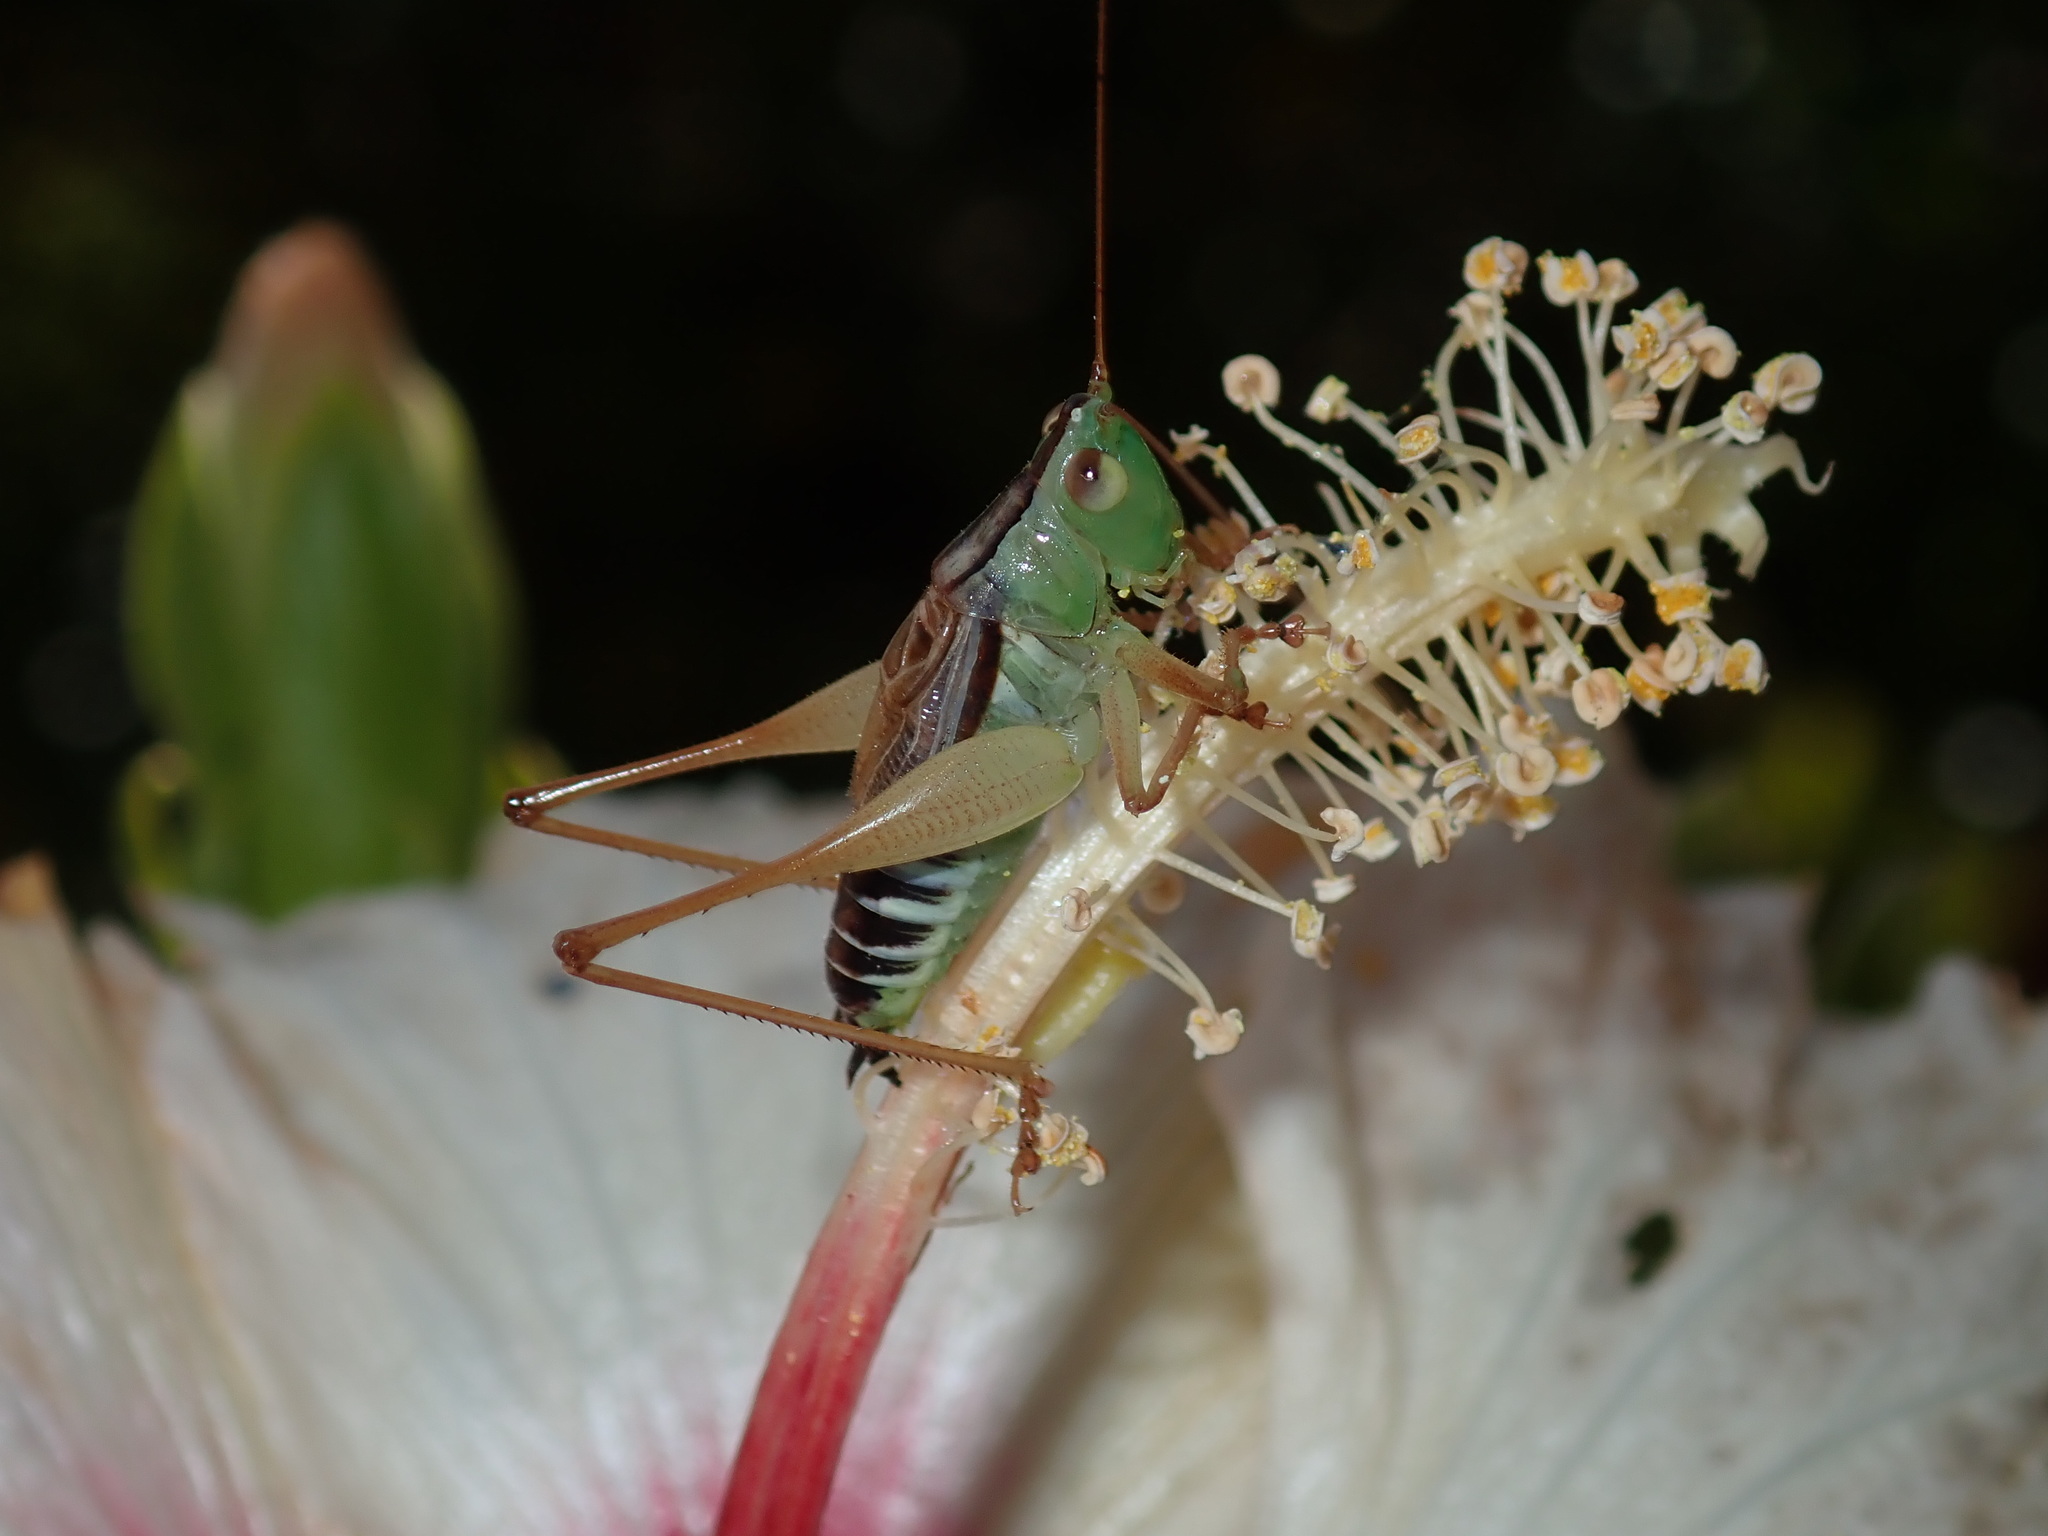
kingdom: Animalia
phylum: Arthropoda
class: Insecta
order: Orthoptera
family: Tettigoniidae
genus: Conocephalus
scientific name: Conocephalus semivittatus
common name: Blackish meadow katydid
